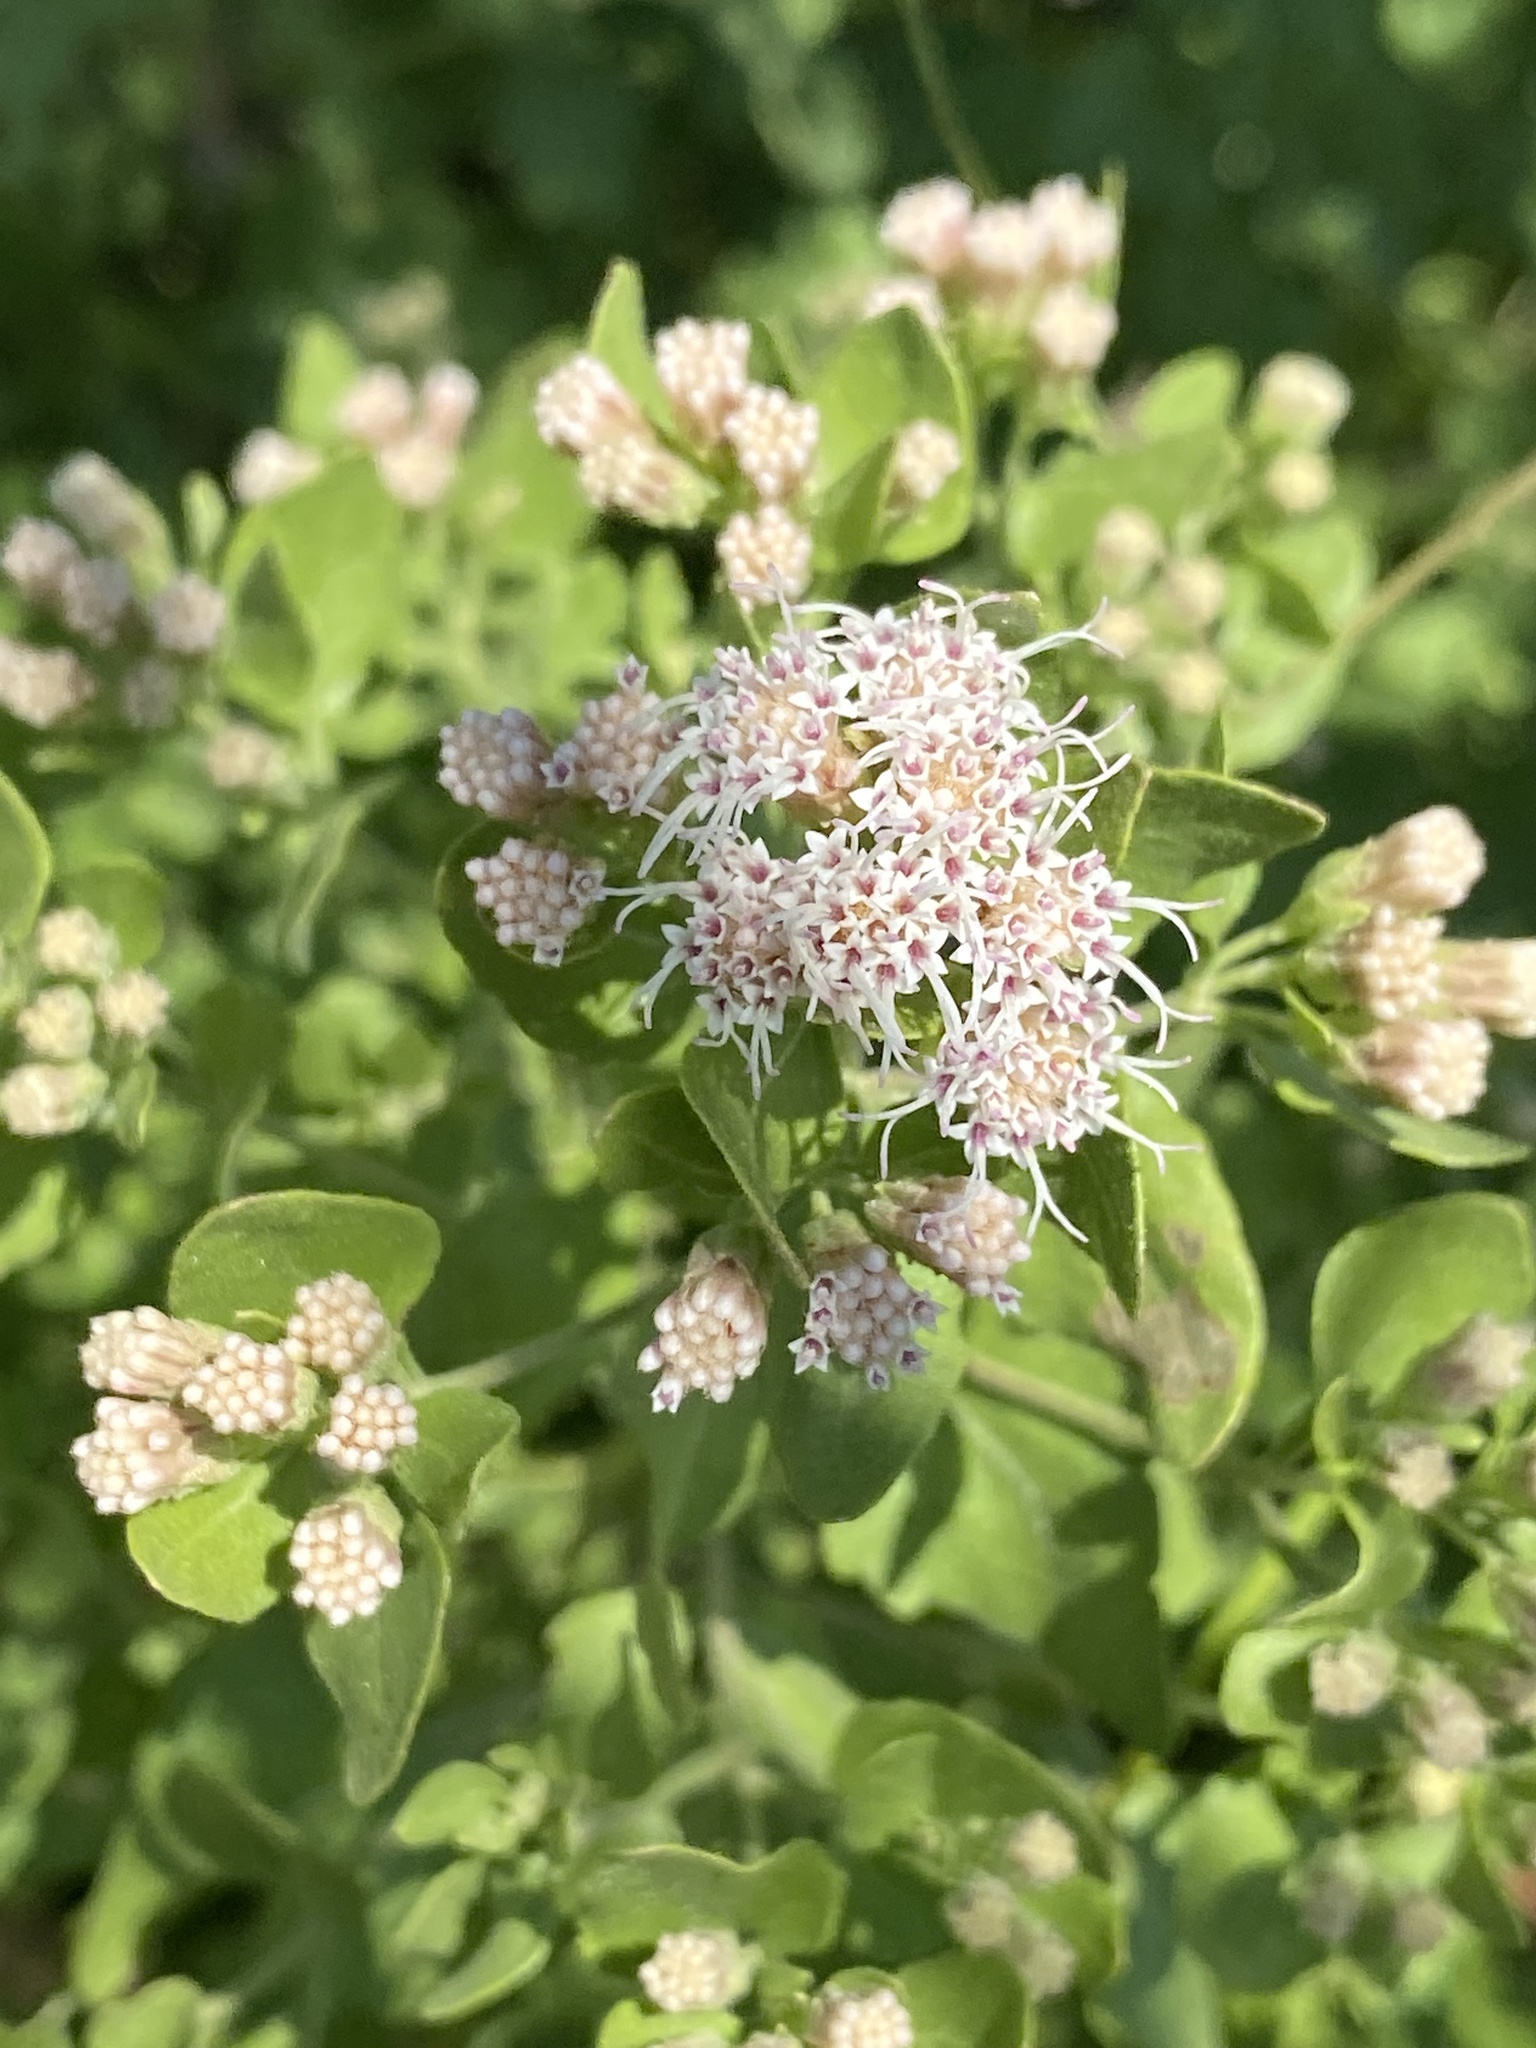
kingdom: Plantae
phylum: Tracheophyta
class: Magnoliopsida
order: Asterales
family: Asteraceae
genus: Ageratina
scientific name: Ageratina wrightii
